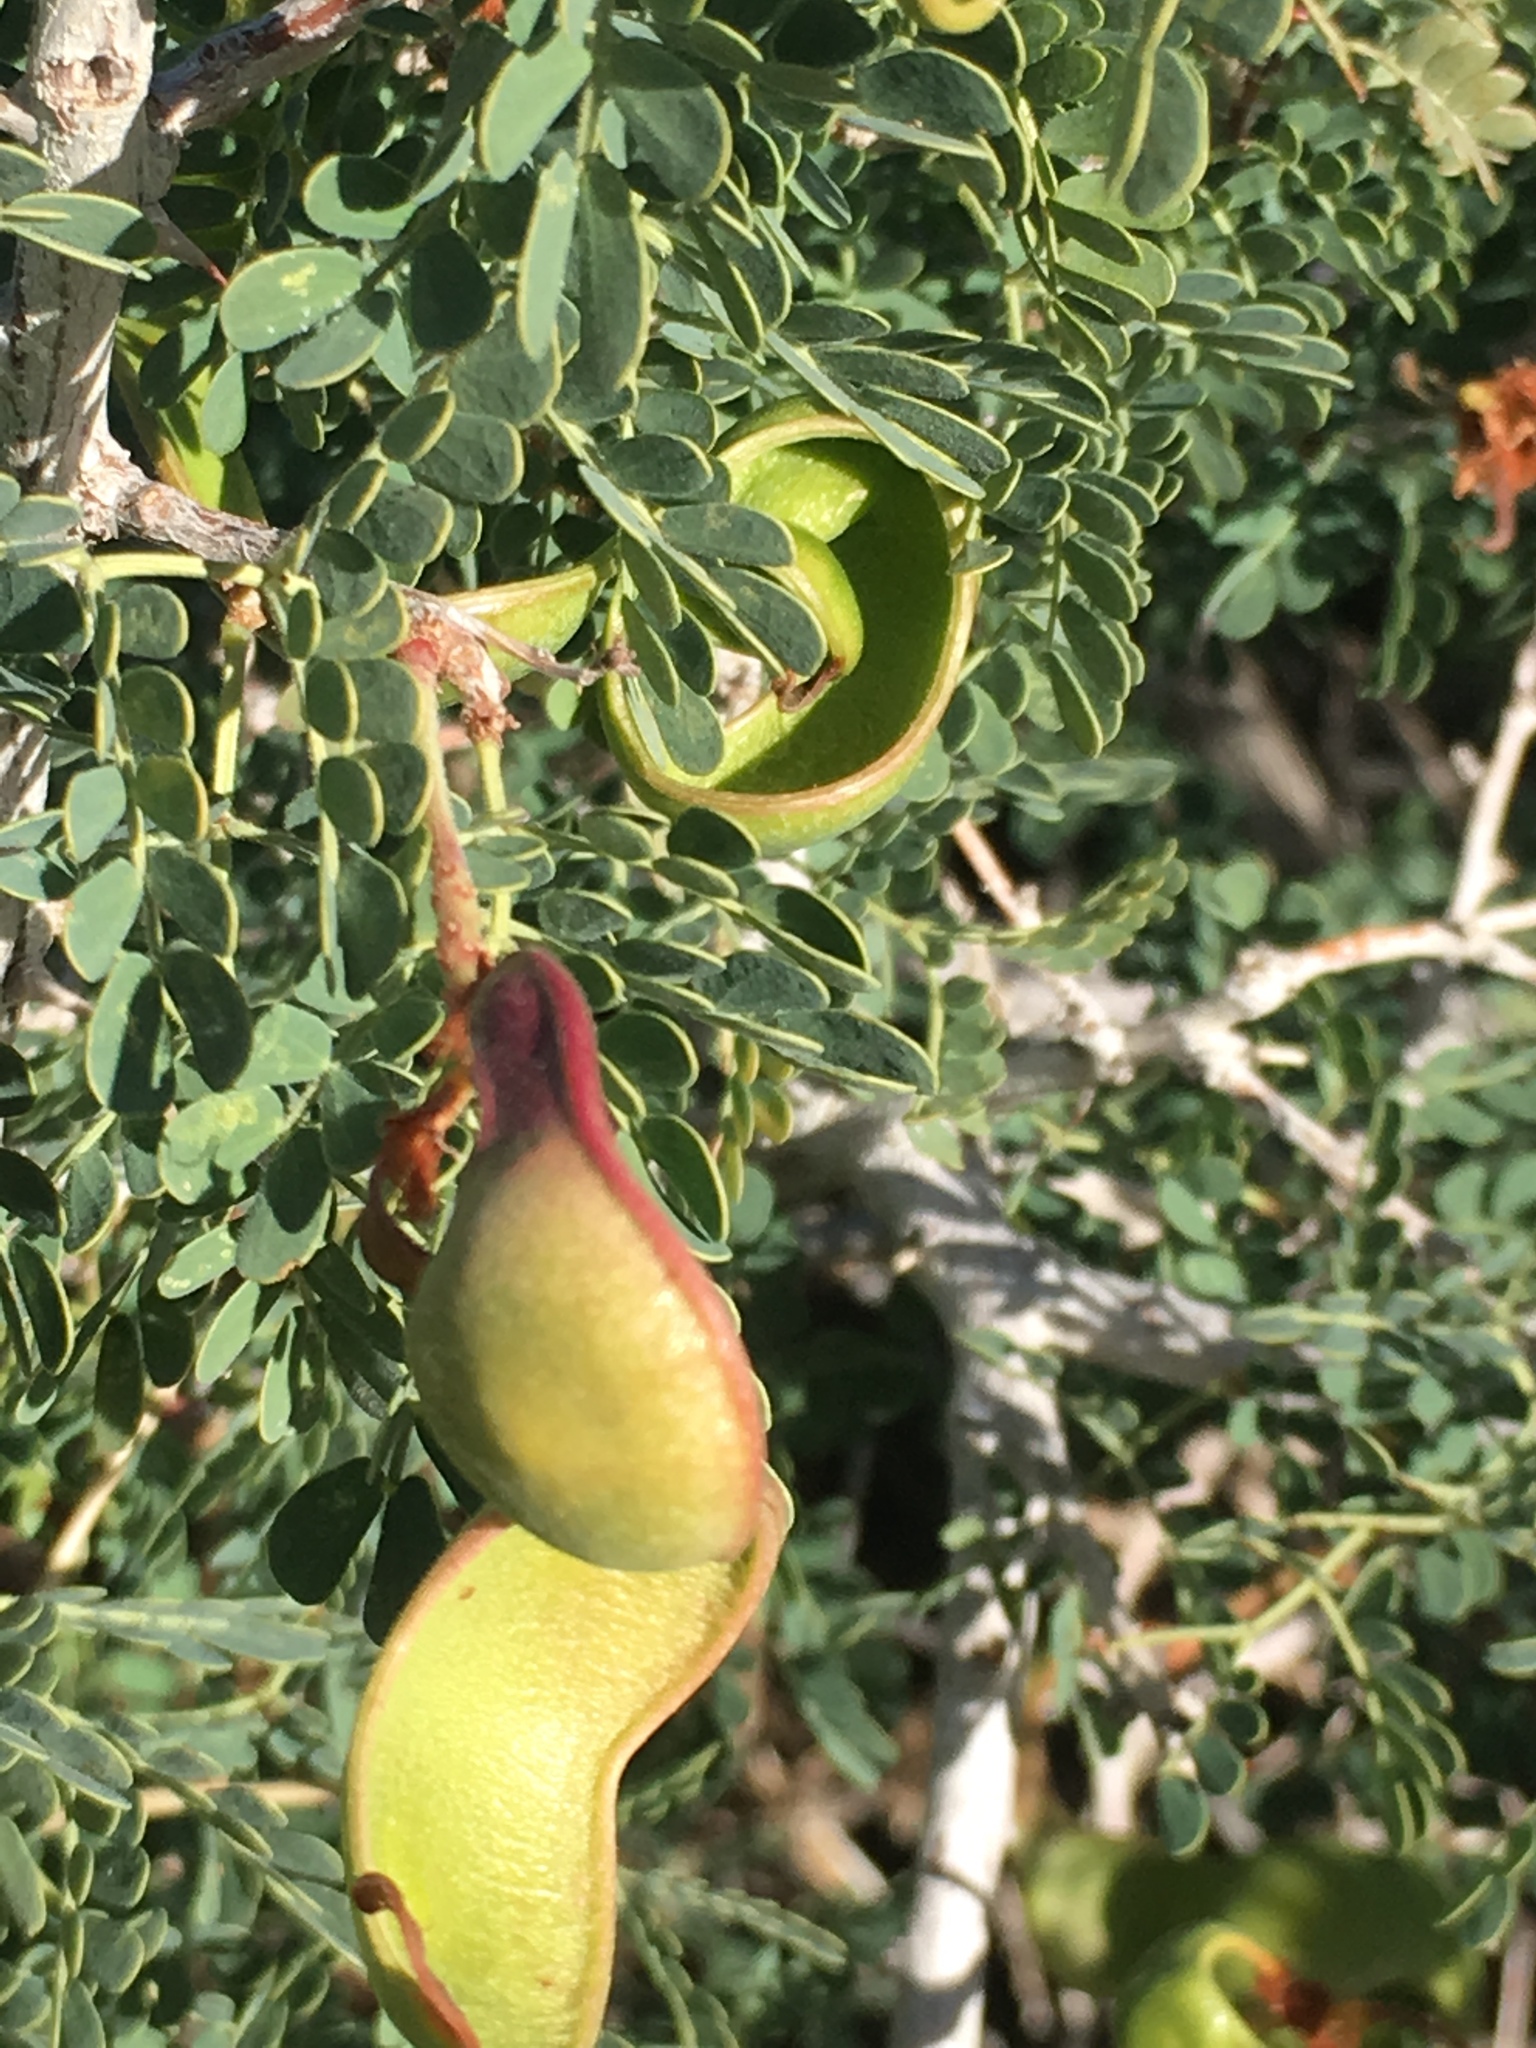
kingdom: Plantae
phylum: Tracheophyta
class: Magnoliopsida
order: Fabales
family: Fabaceae
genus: Senegalia
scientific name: Senegalia greggii
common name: Texas-mimosa
